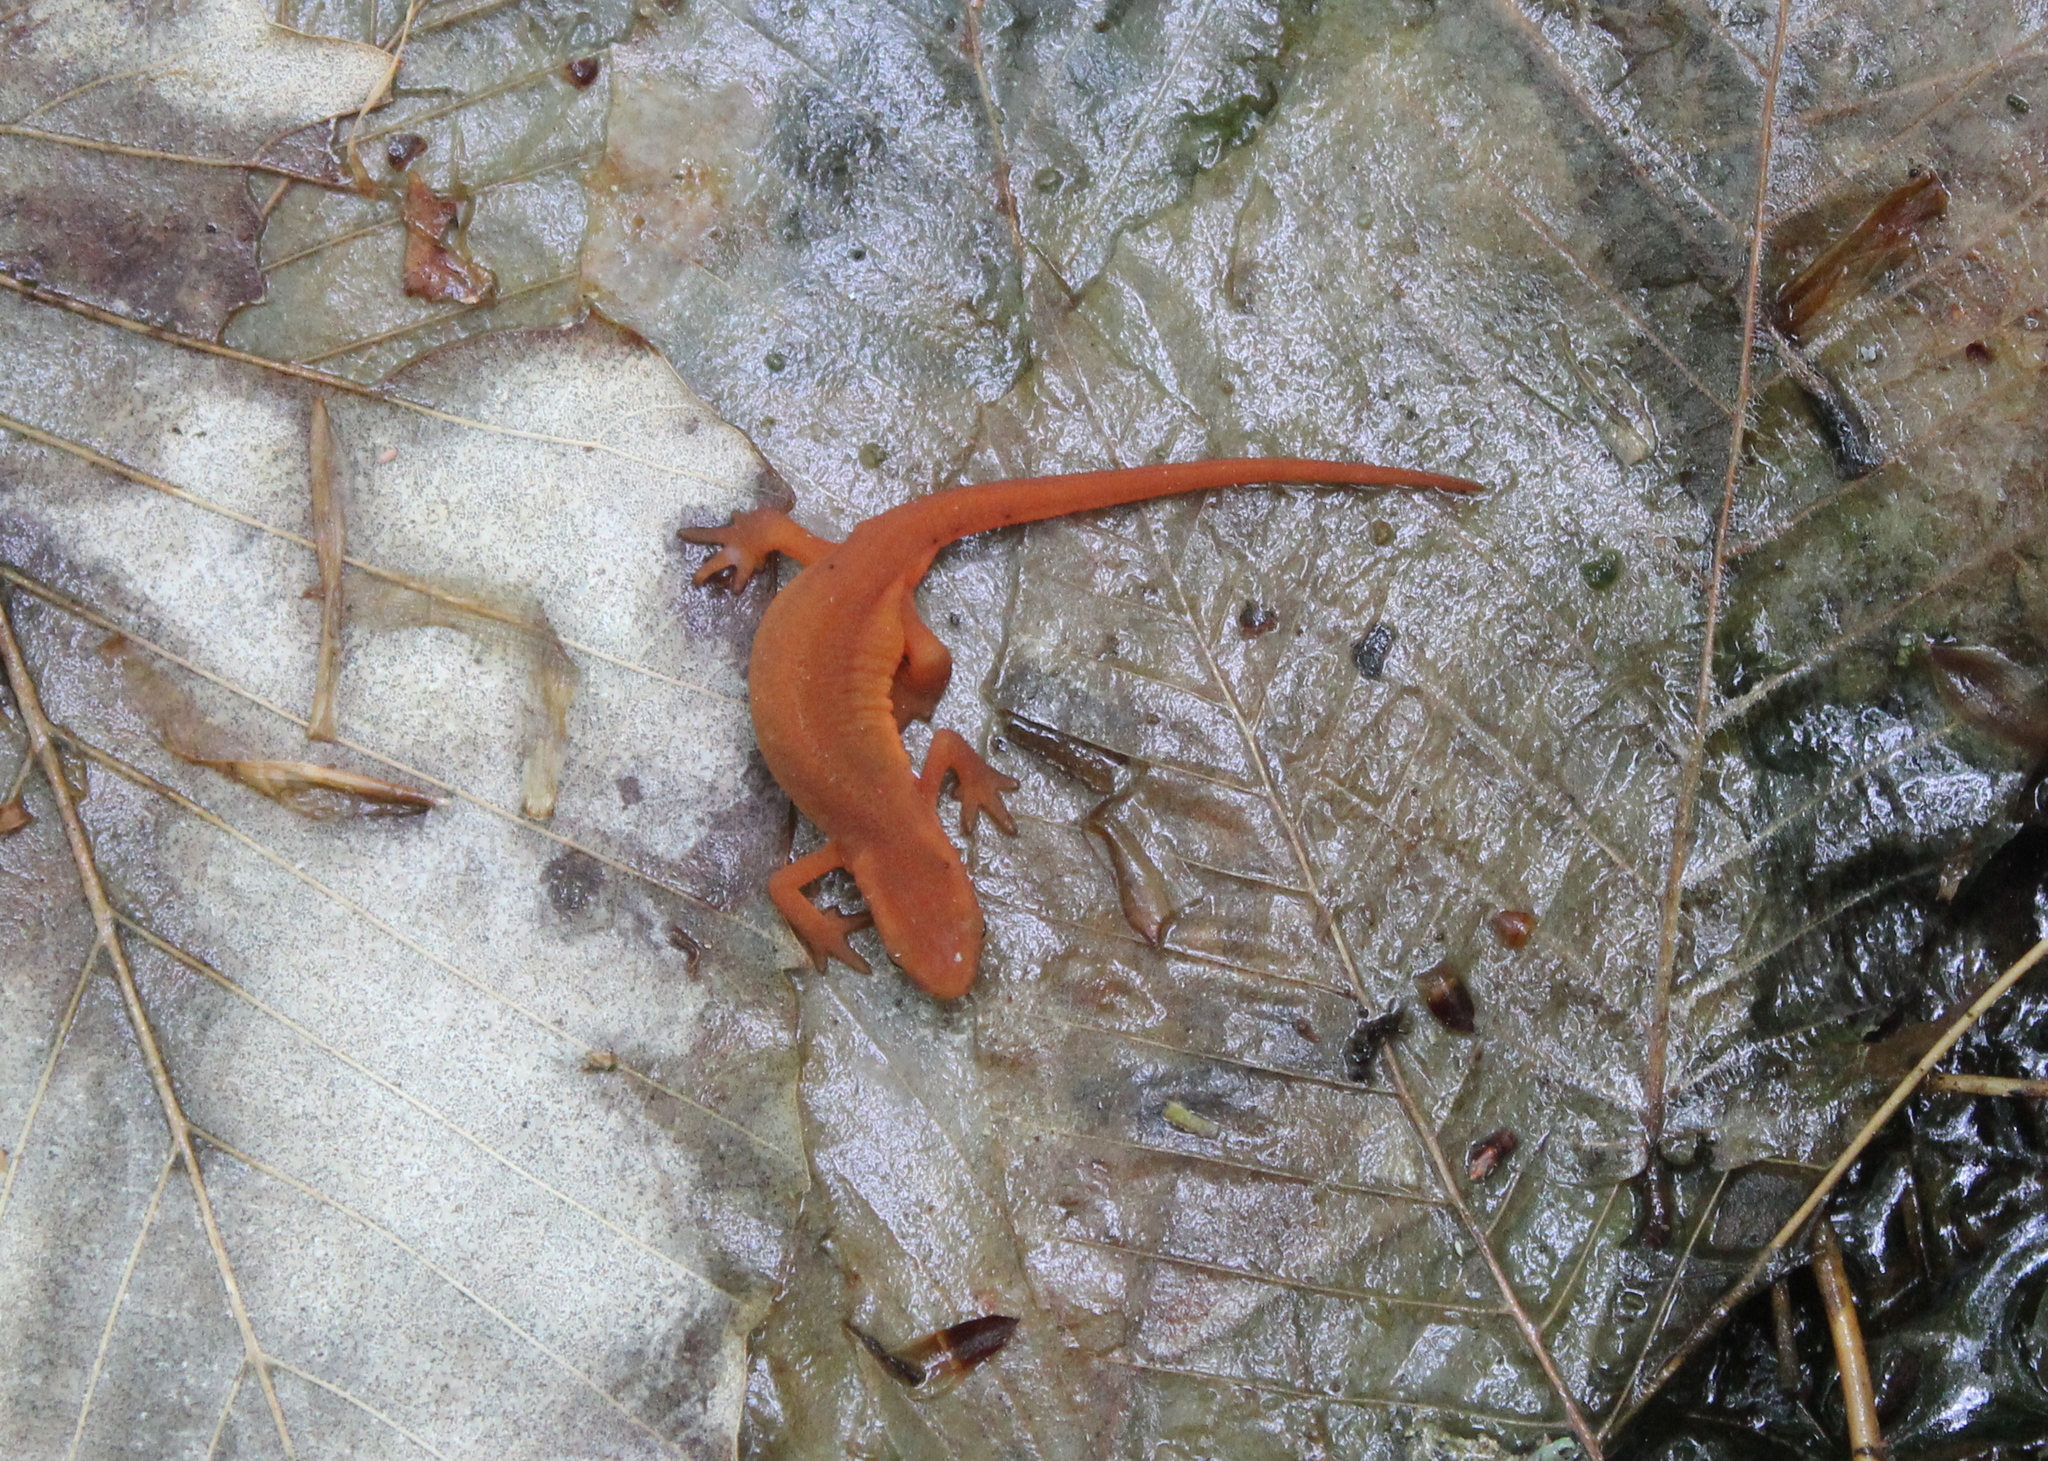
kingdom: Animalia
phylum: Chordata
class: Amphibia
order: Caudata
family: Salamandridae
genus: Notophthalmus
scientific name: Notophthalmus viridescens
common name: Eastern newt
